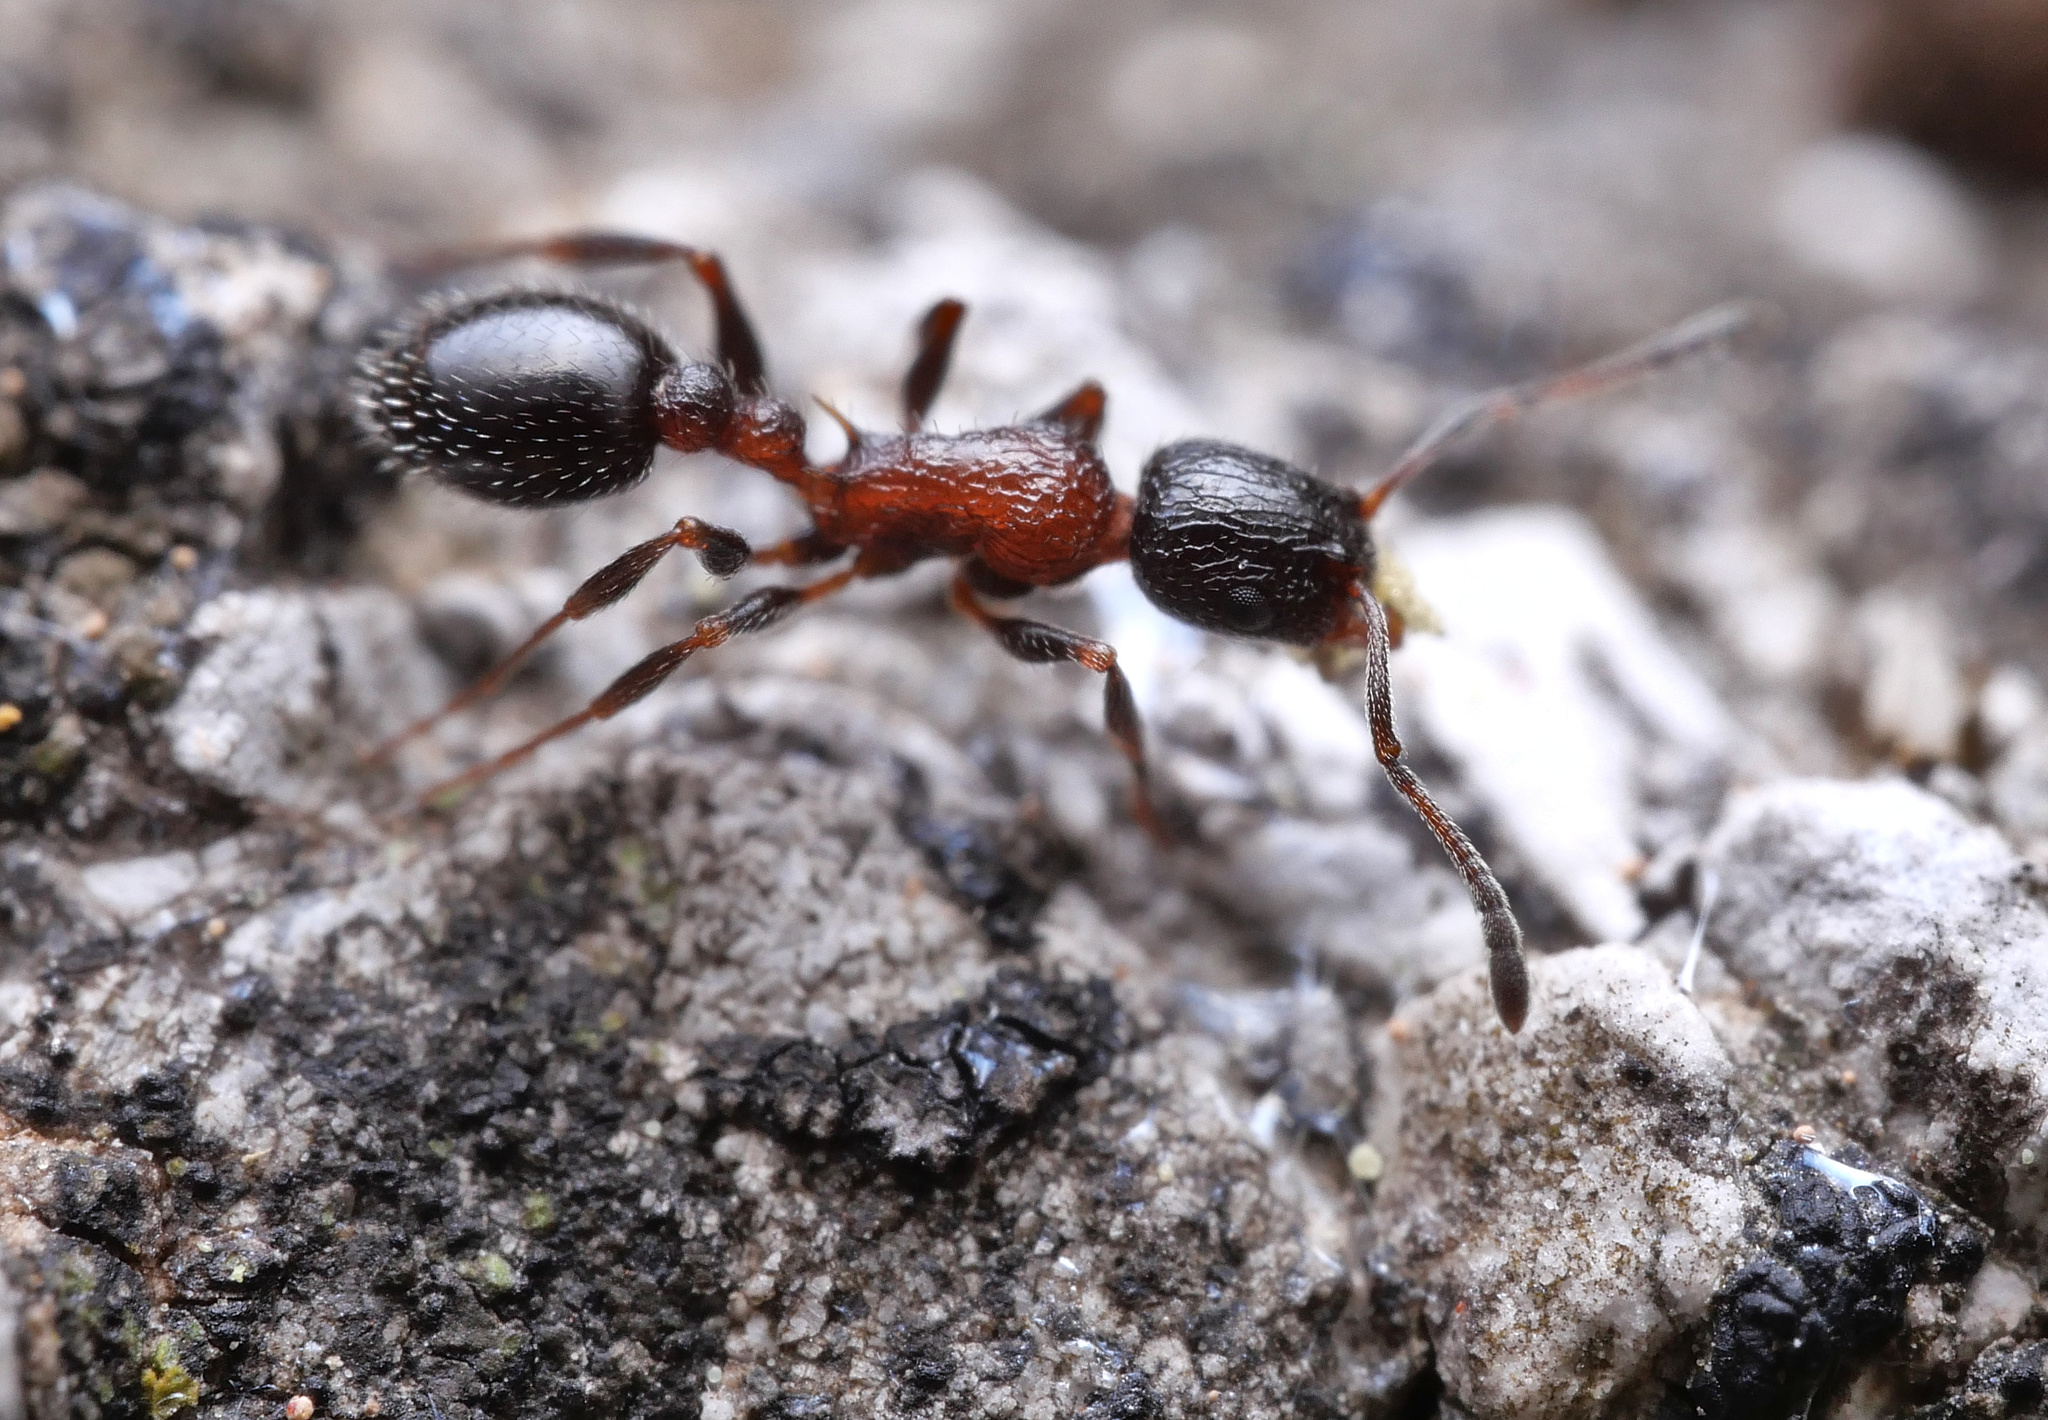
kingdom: Animalia
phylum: Arthropoda
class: Insecta
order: Hymenoptera
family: Formicidae
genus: Leptothorax
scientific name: Leptothorax semiruber
